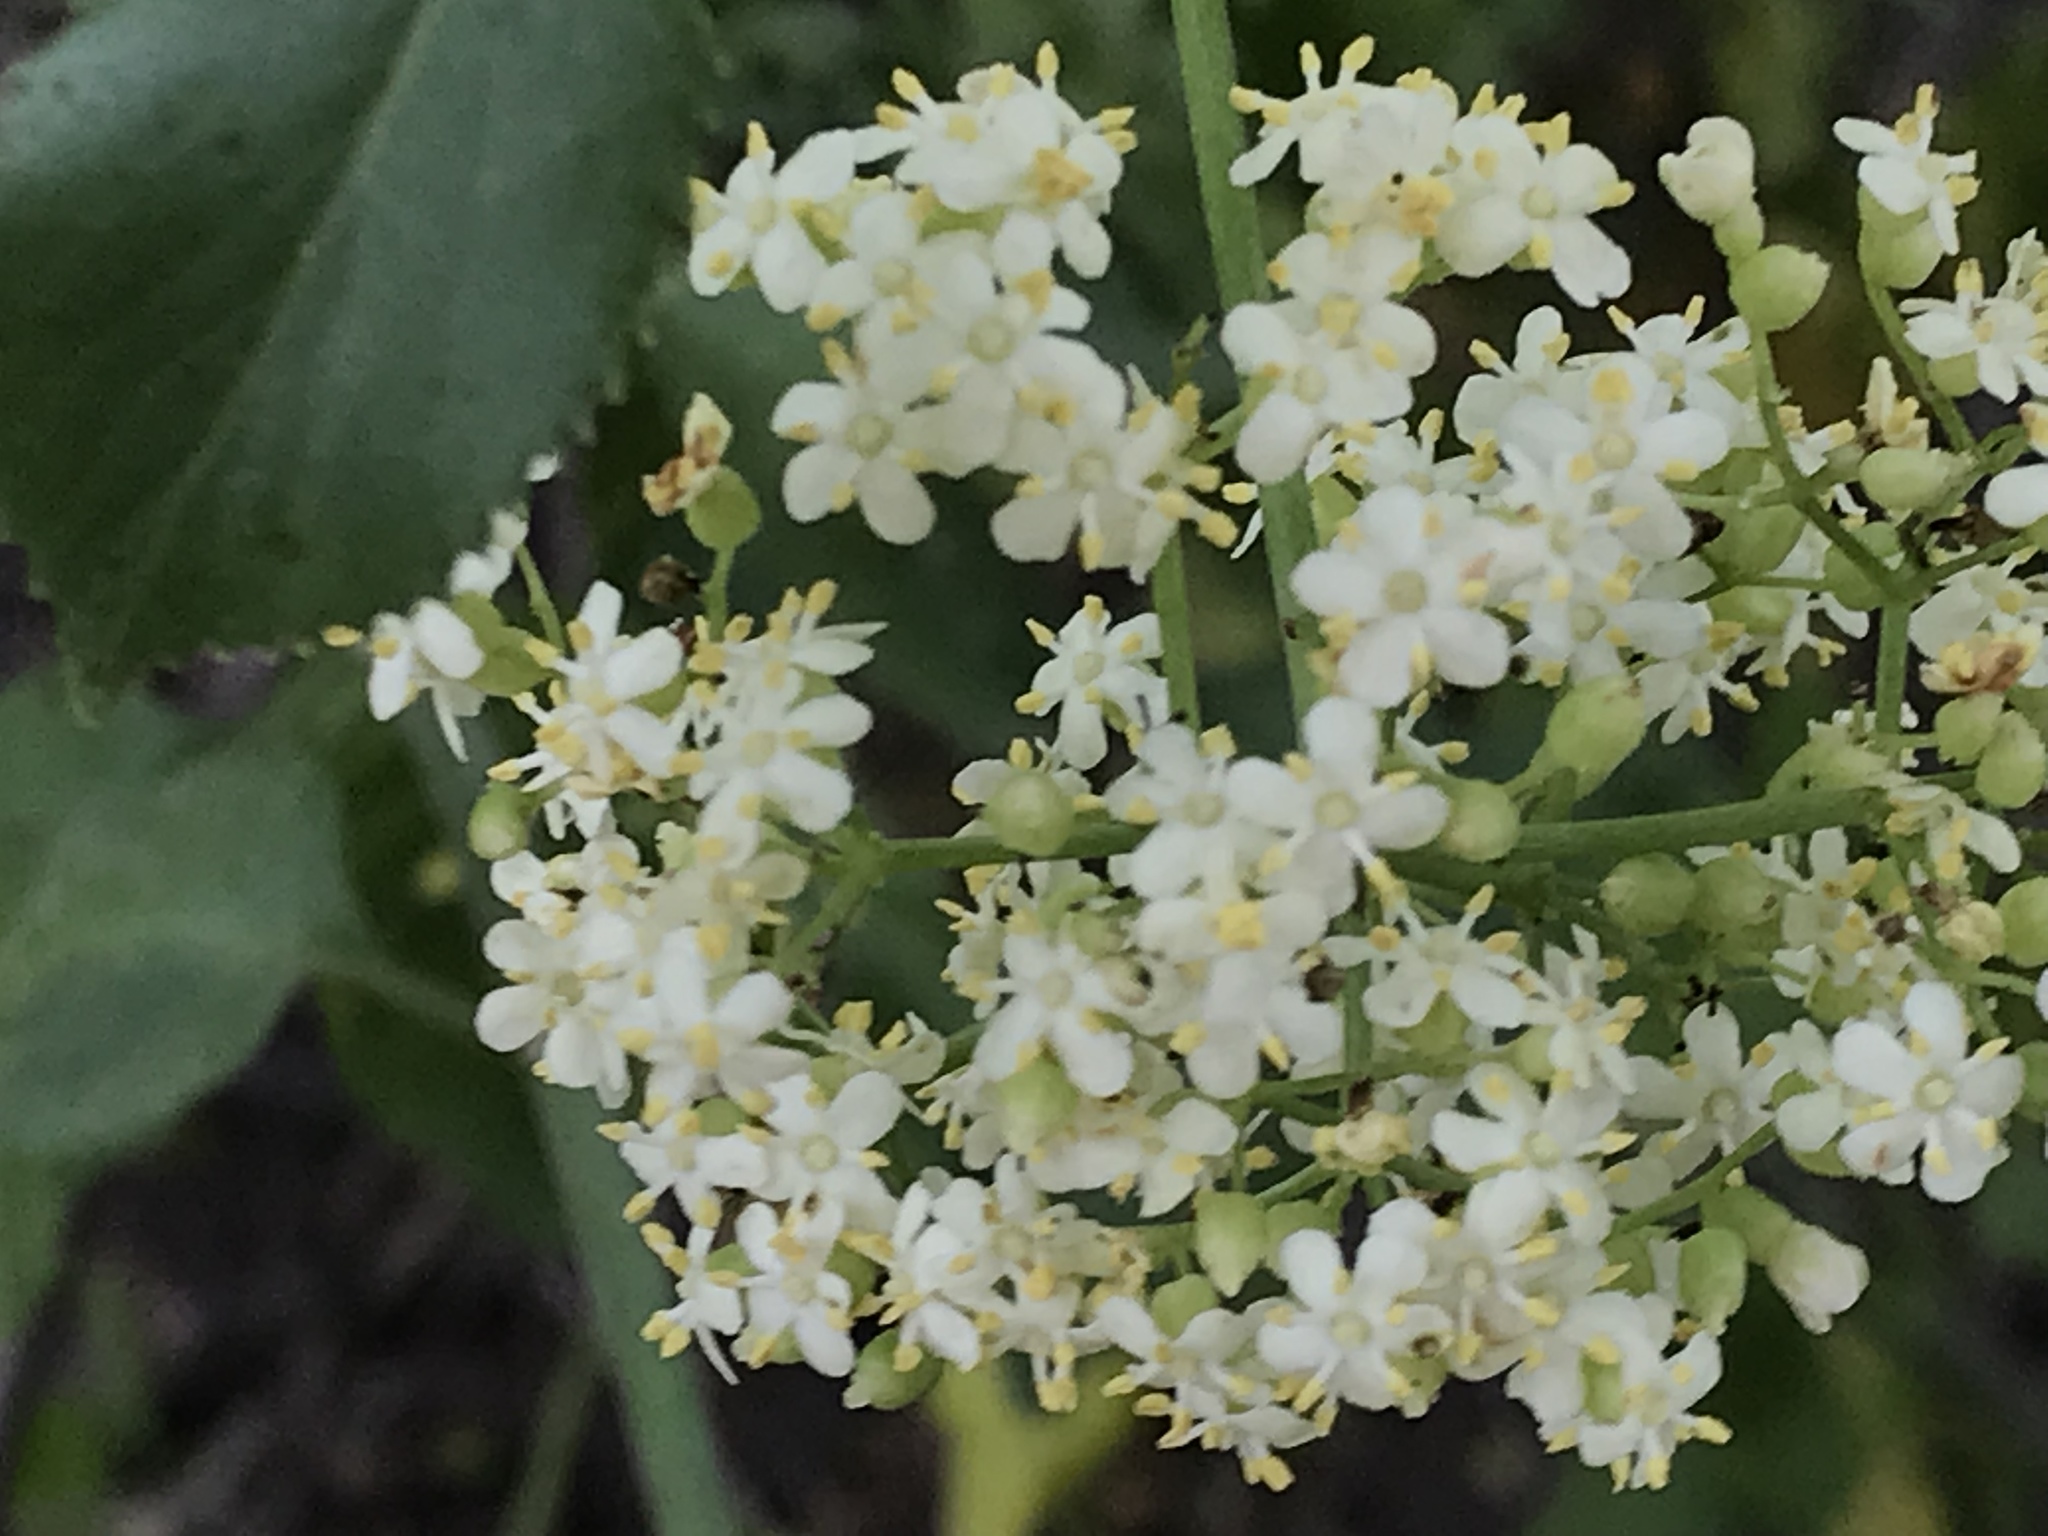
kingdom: Plantae
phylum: Tracheophyta
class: Magnoliopsida
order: Dipsacales
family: Viburnaceae
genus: Sambucus
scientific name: Sambucus cerulea
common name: Blue elder
